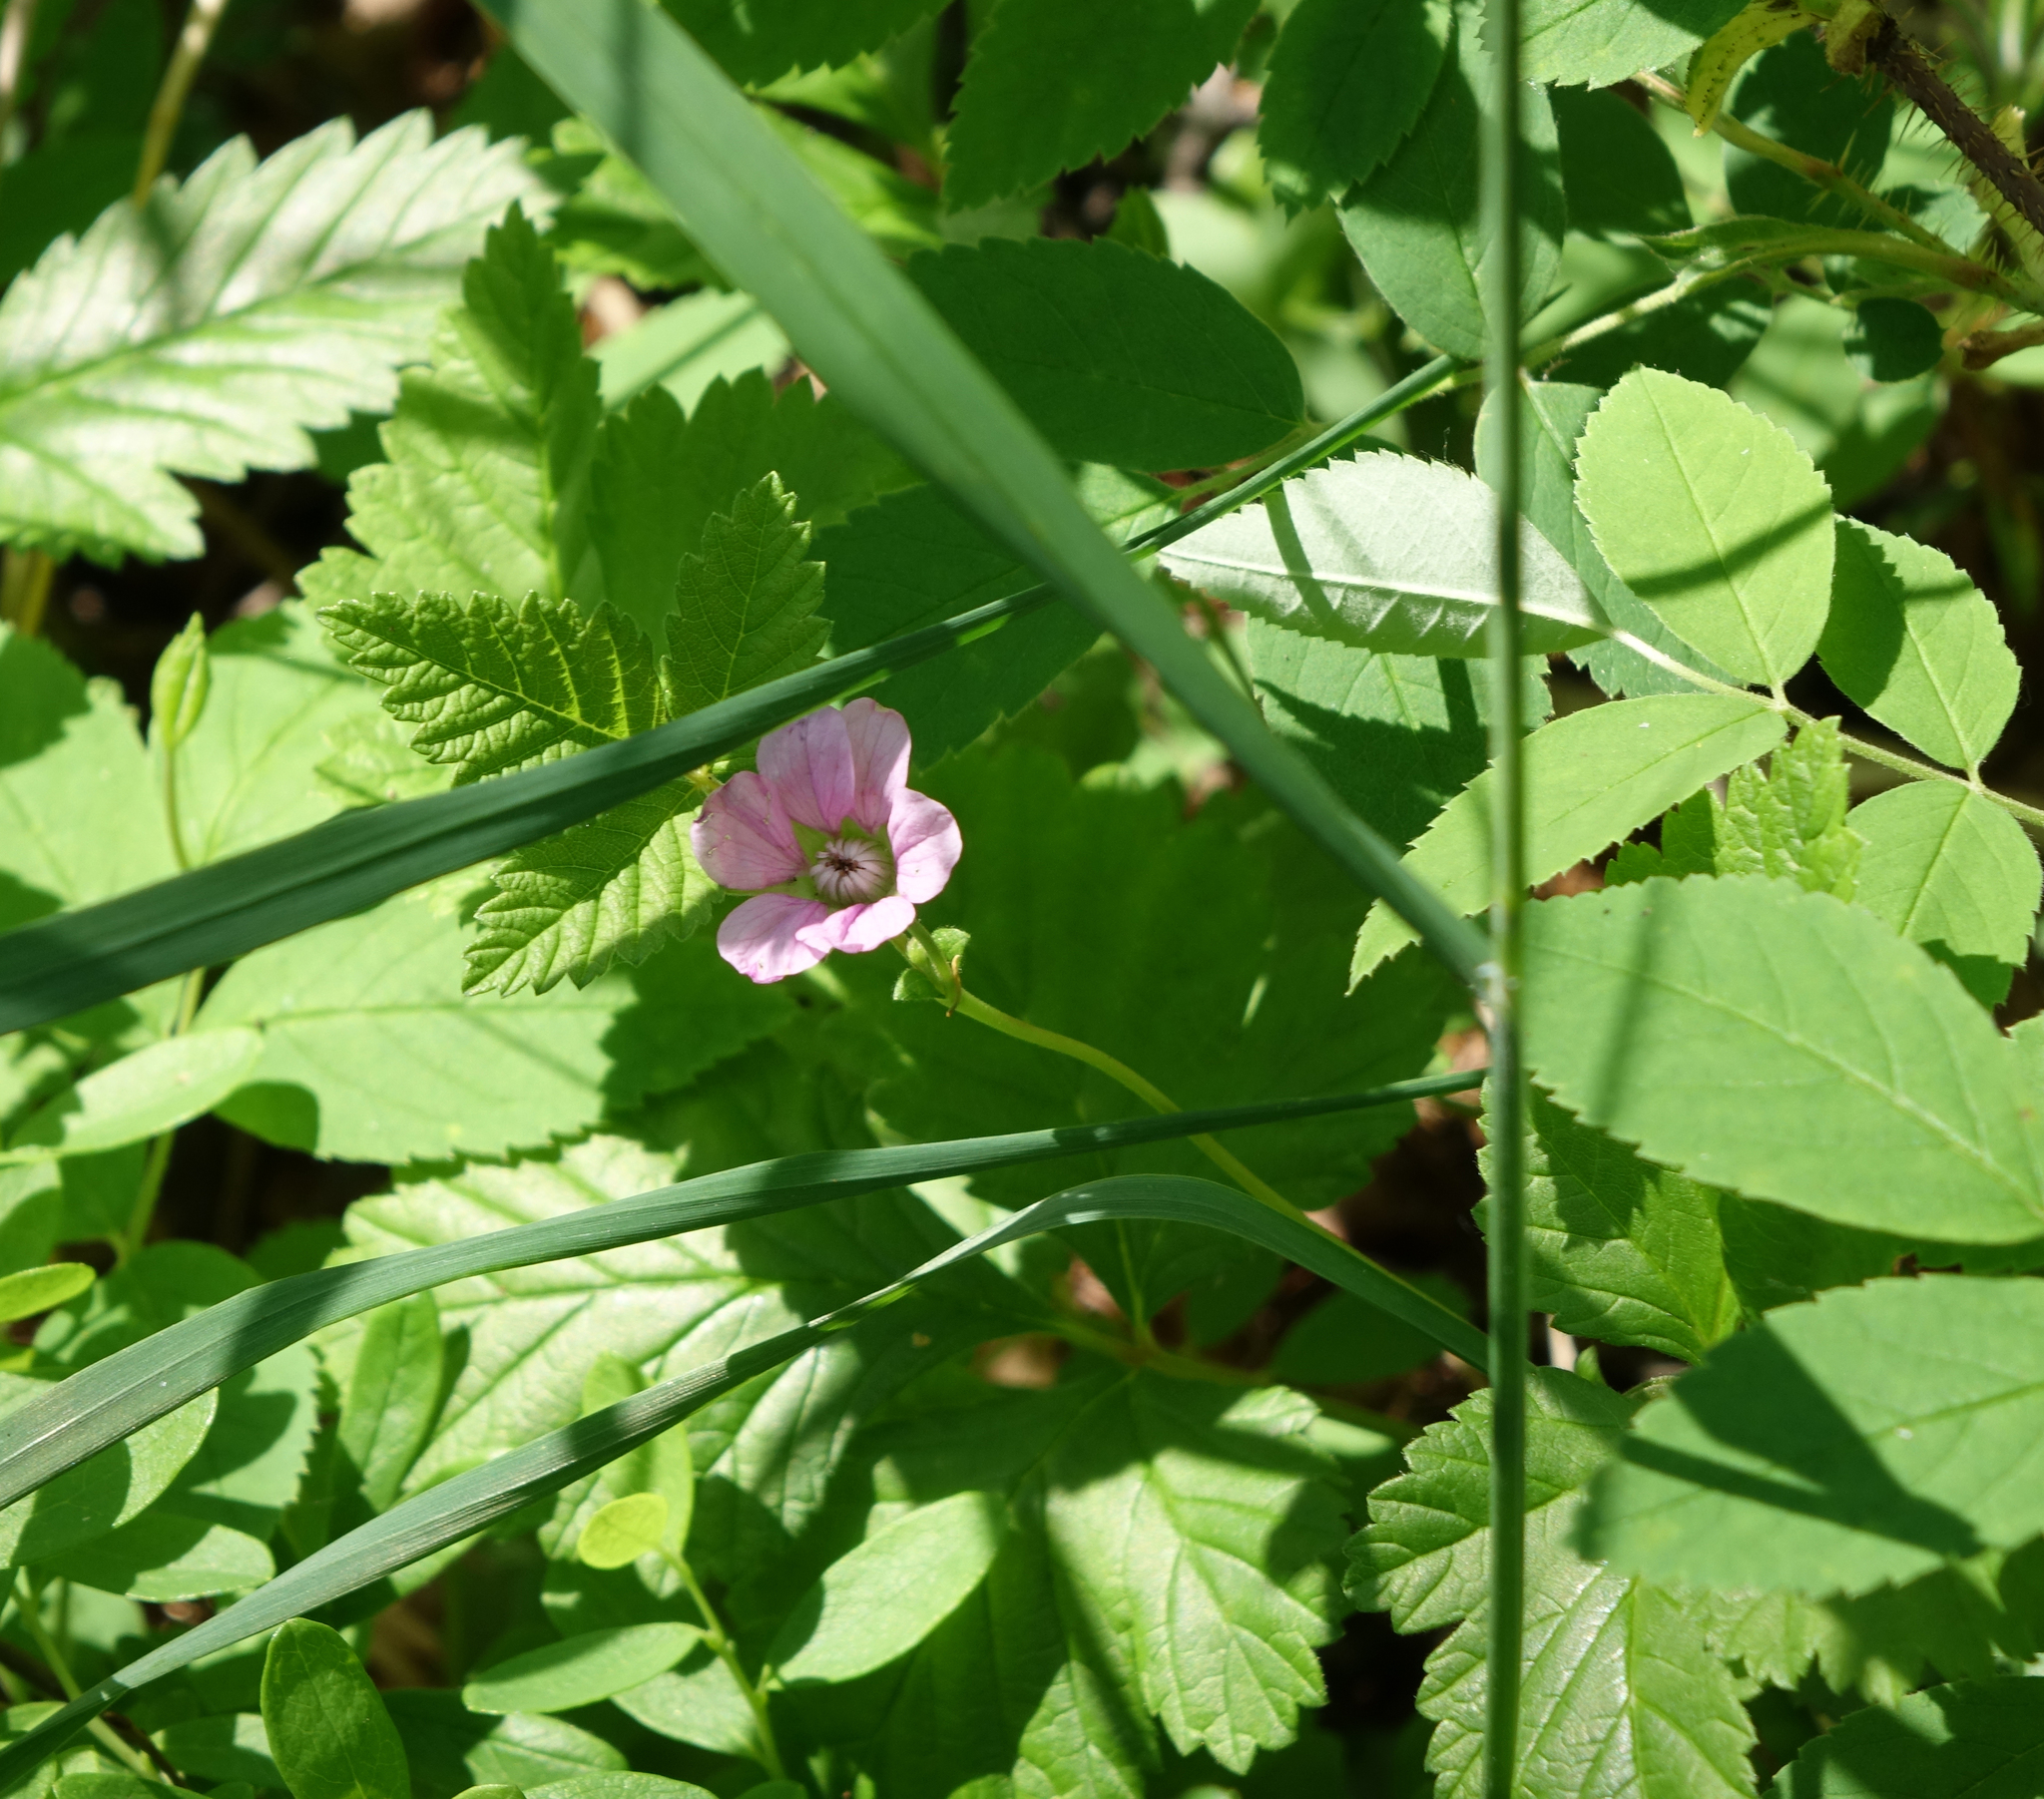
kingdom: Plantae
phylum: Tracheophyta
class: Magnoliopsida
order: Rosales
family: Rosaceae
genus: Rubus
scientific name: Rubus arcticus
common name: Arctic bramble
